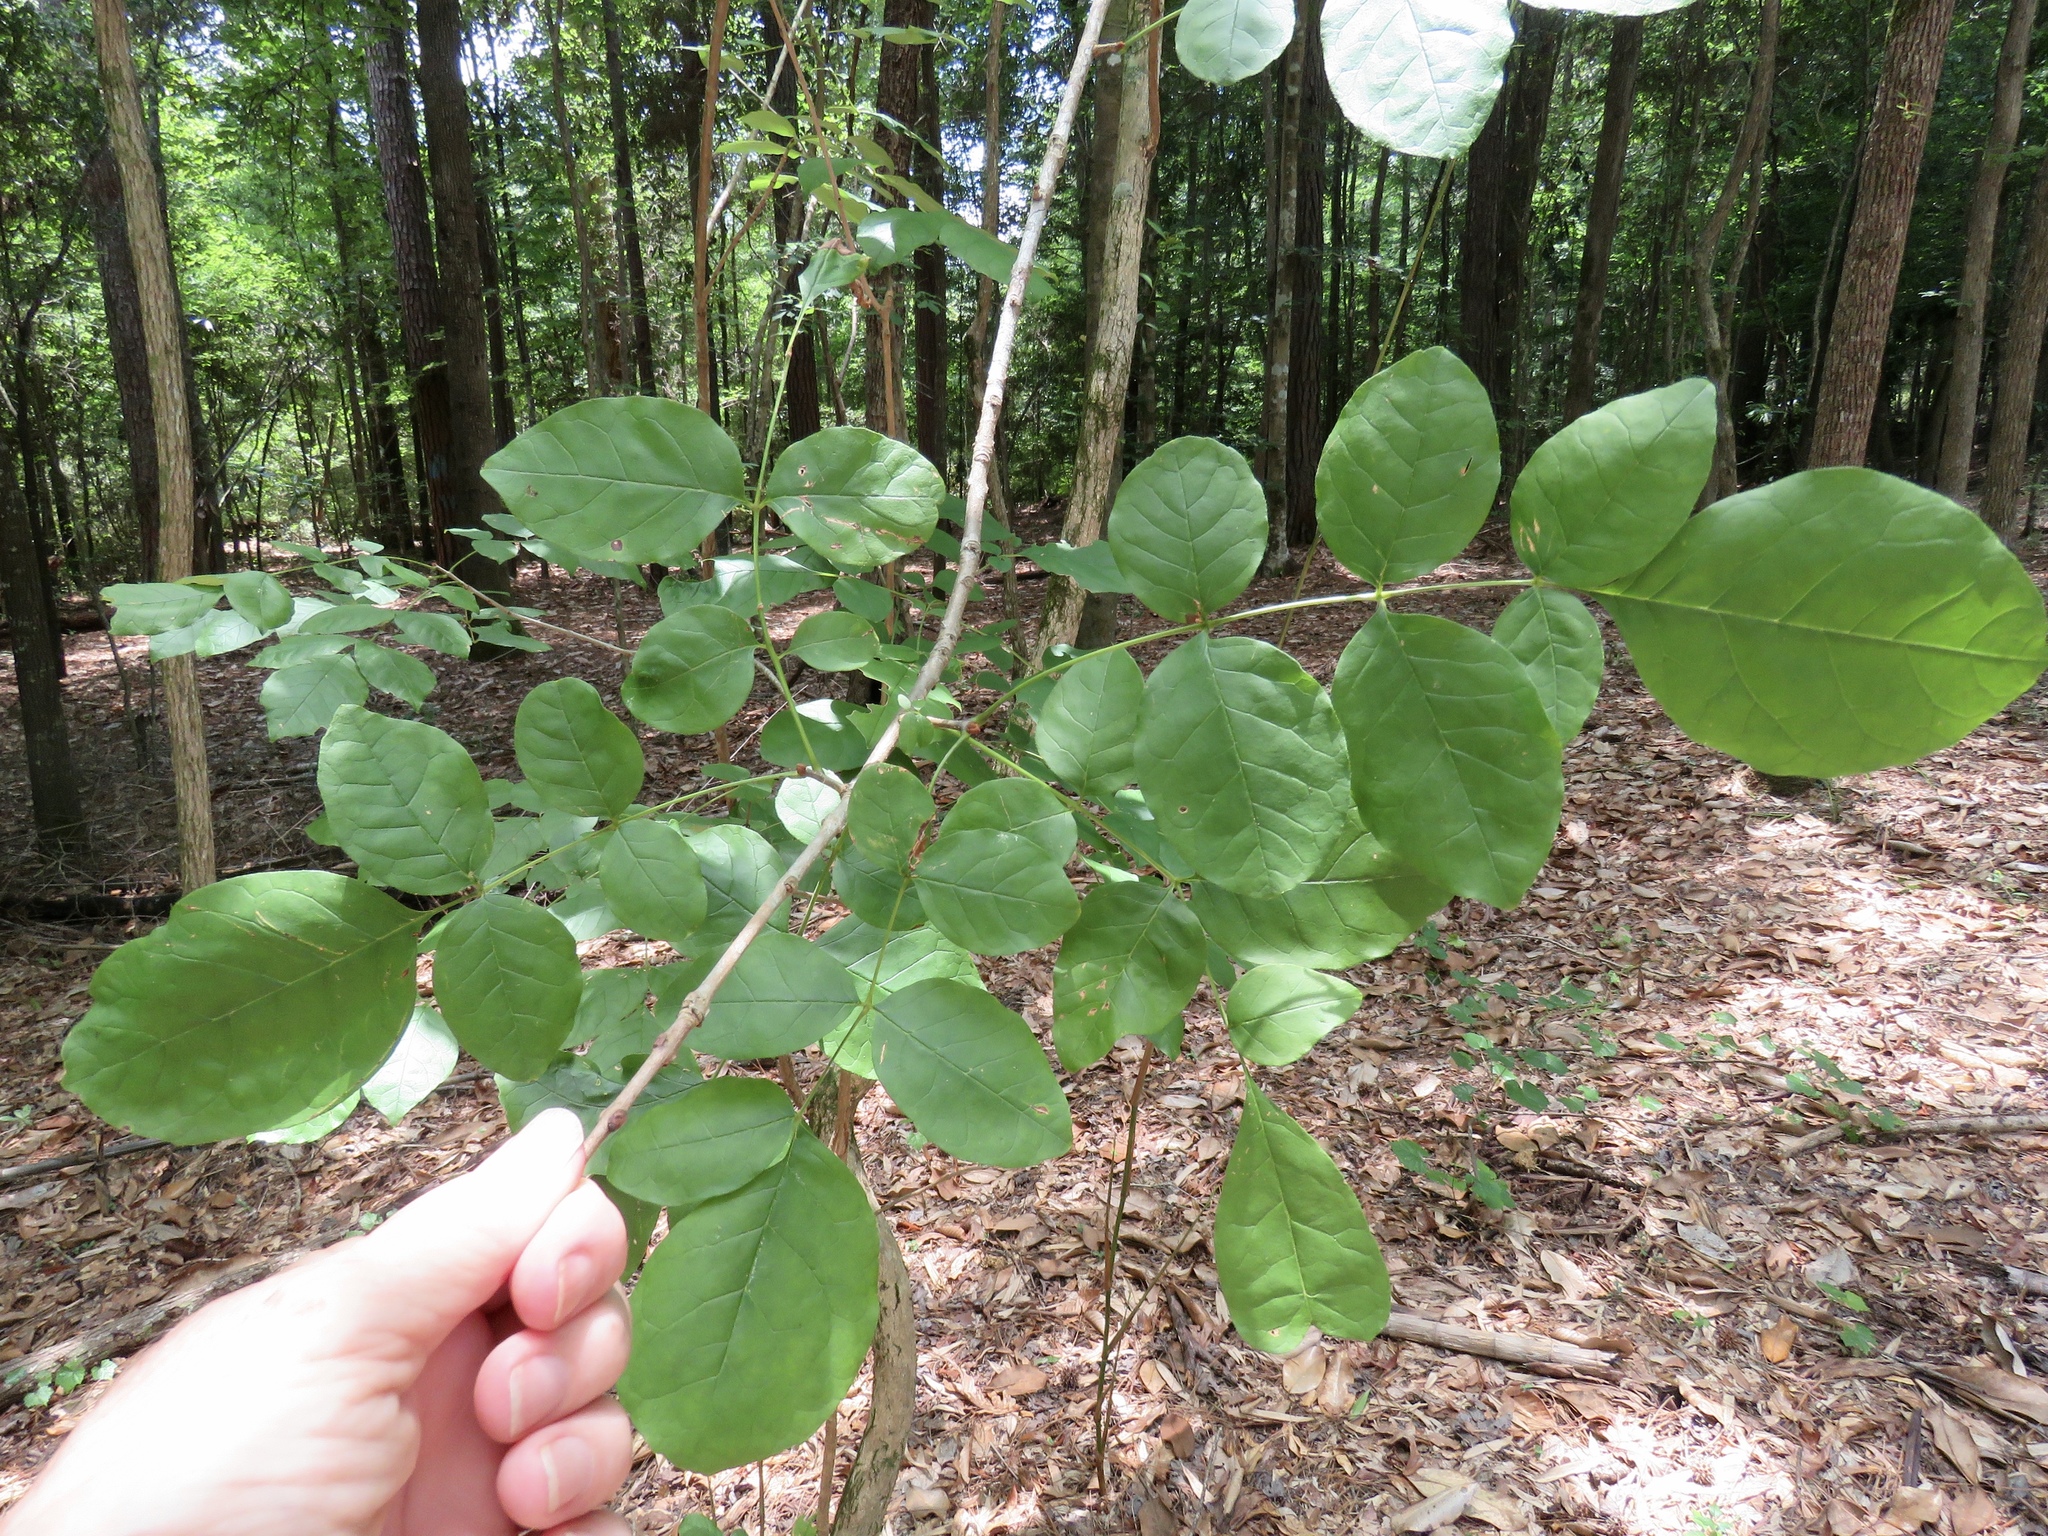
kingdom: Plantae
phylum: Tracheophyta
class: Magnoliopsida
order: Lamiales
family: Oleaceae
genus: Fraxinus
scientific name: Fraxinus americana
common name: White ash
